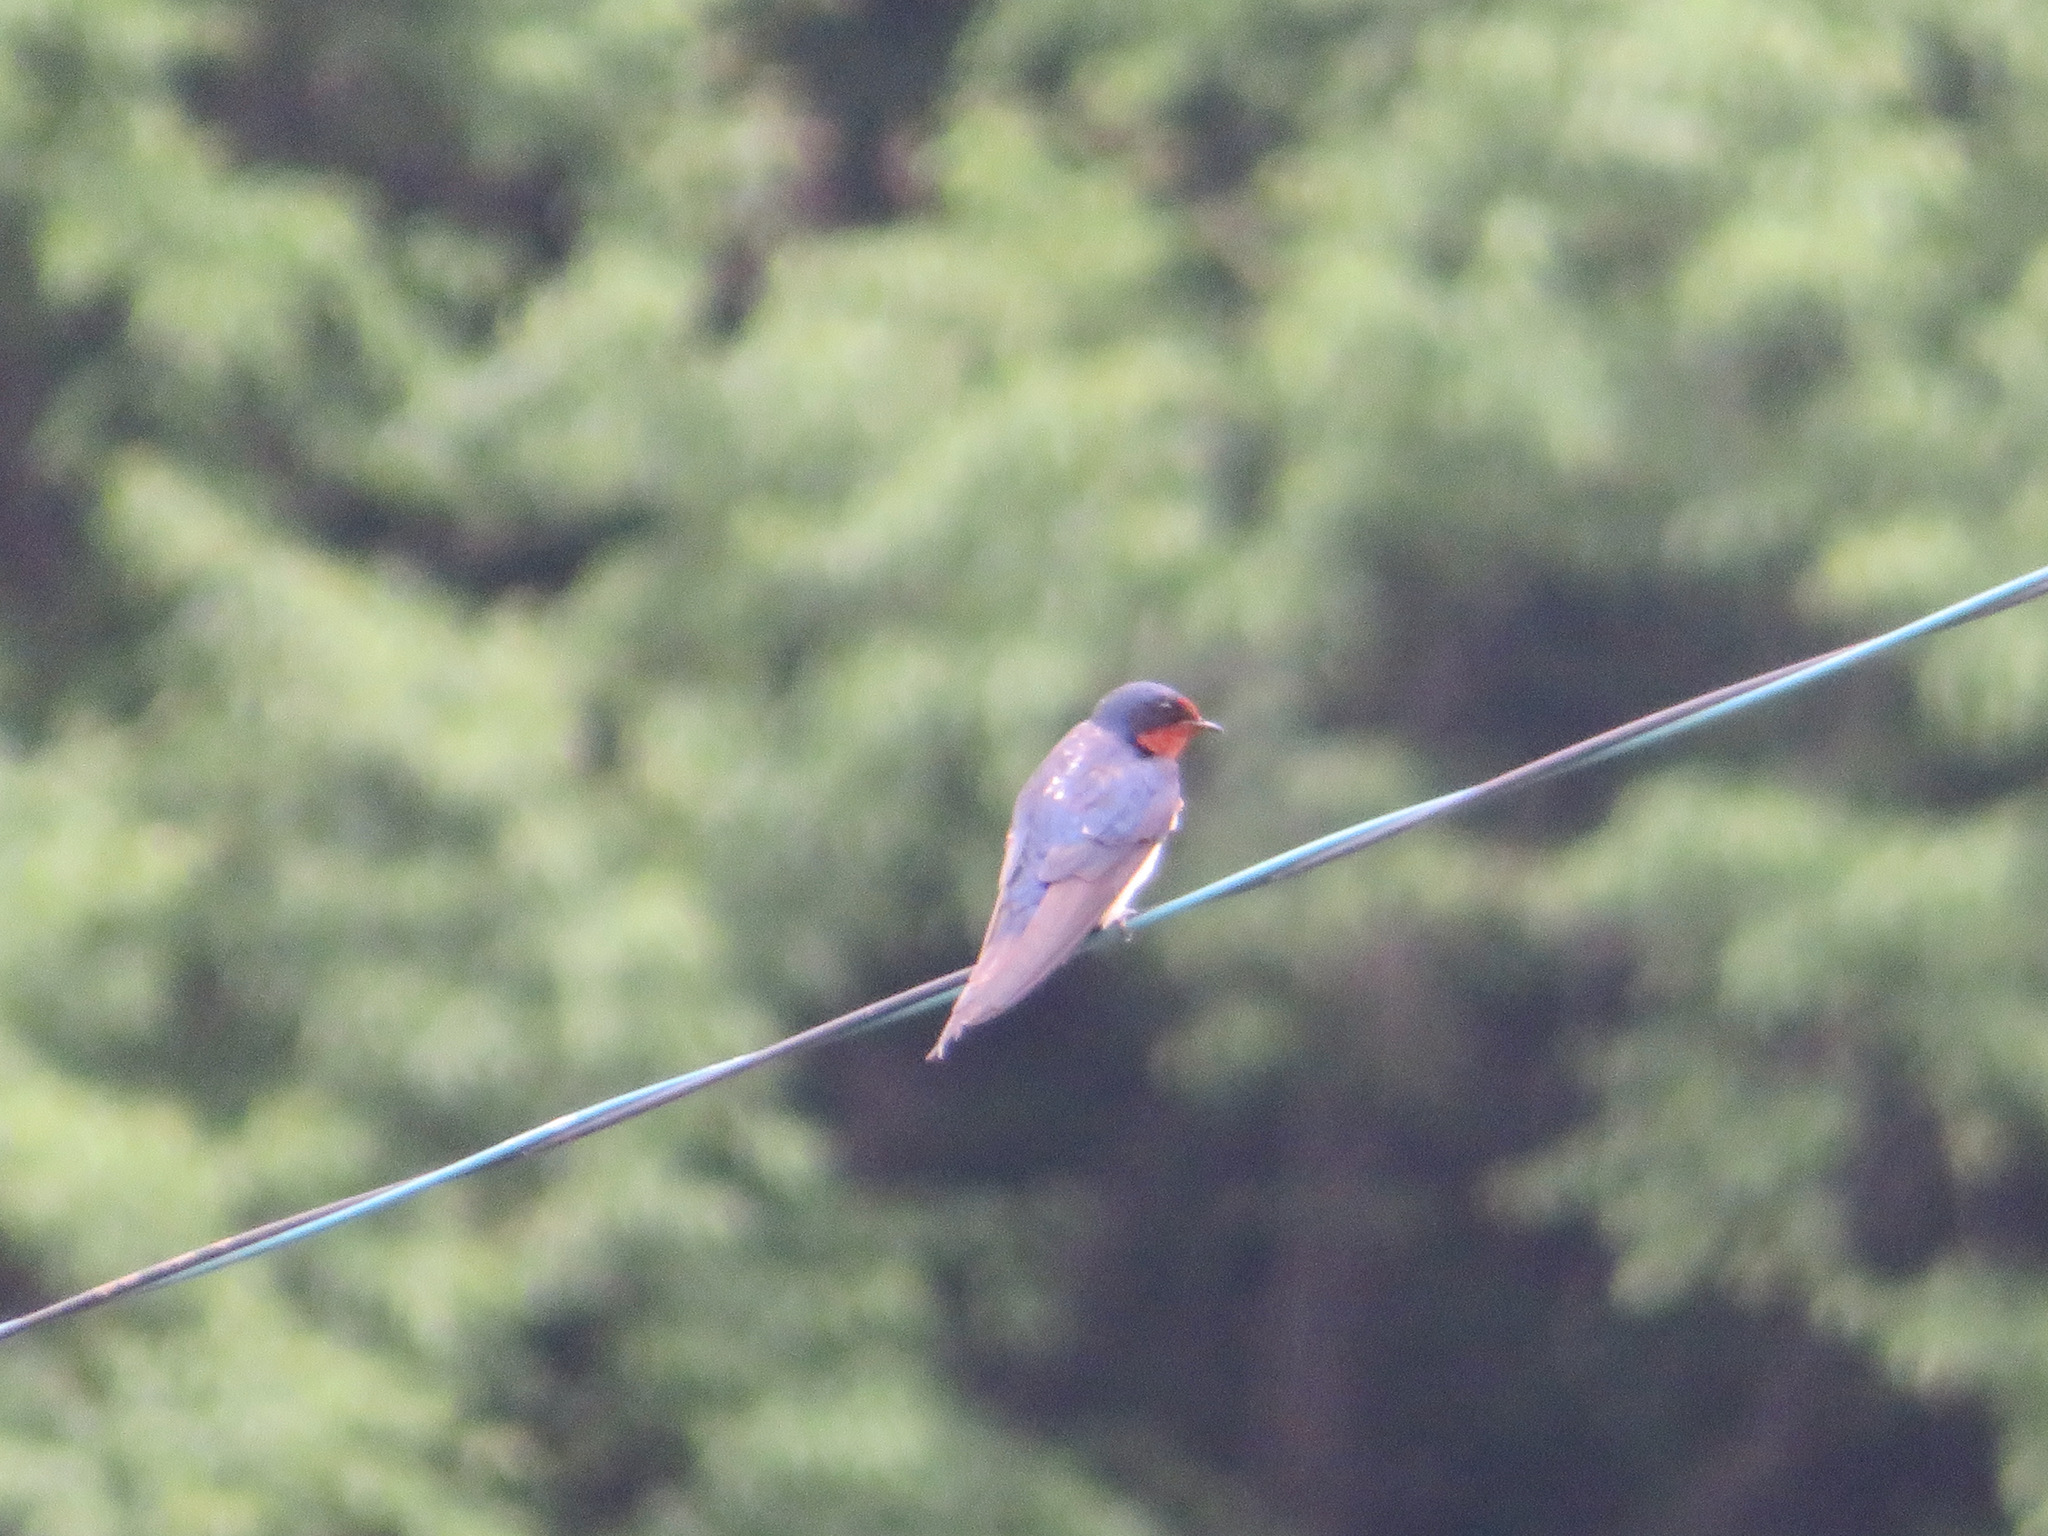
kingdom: Animalia
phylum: Chordata
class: Aves
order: Passeriformes
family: Hirundinidae
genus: Hirundo
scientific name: Hirundo rustica
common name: Barn swallow
